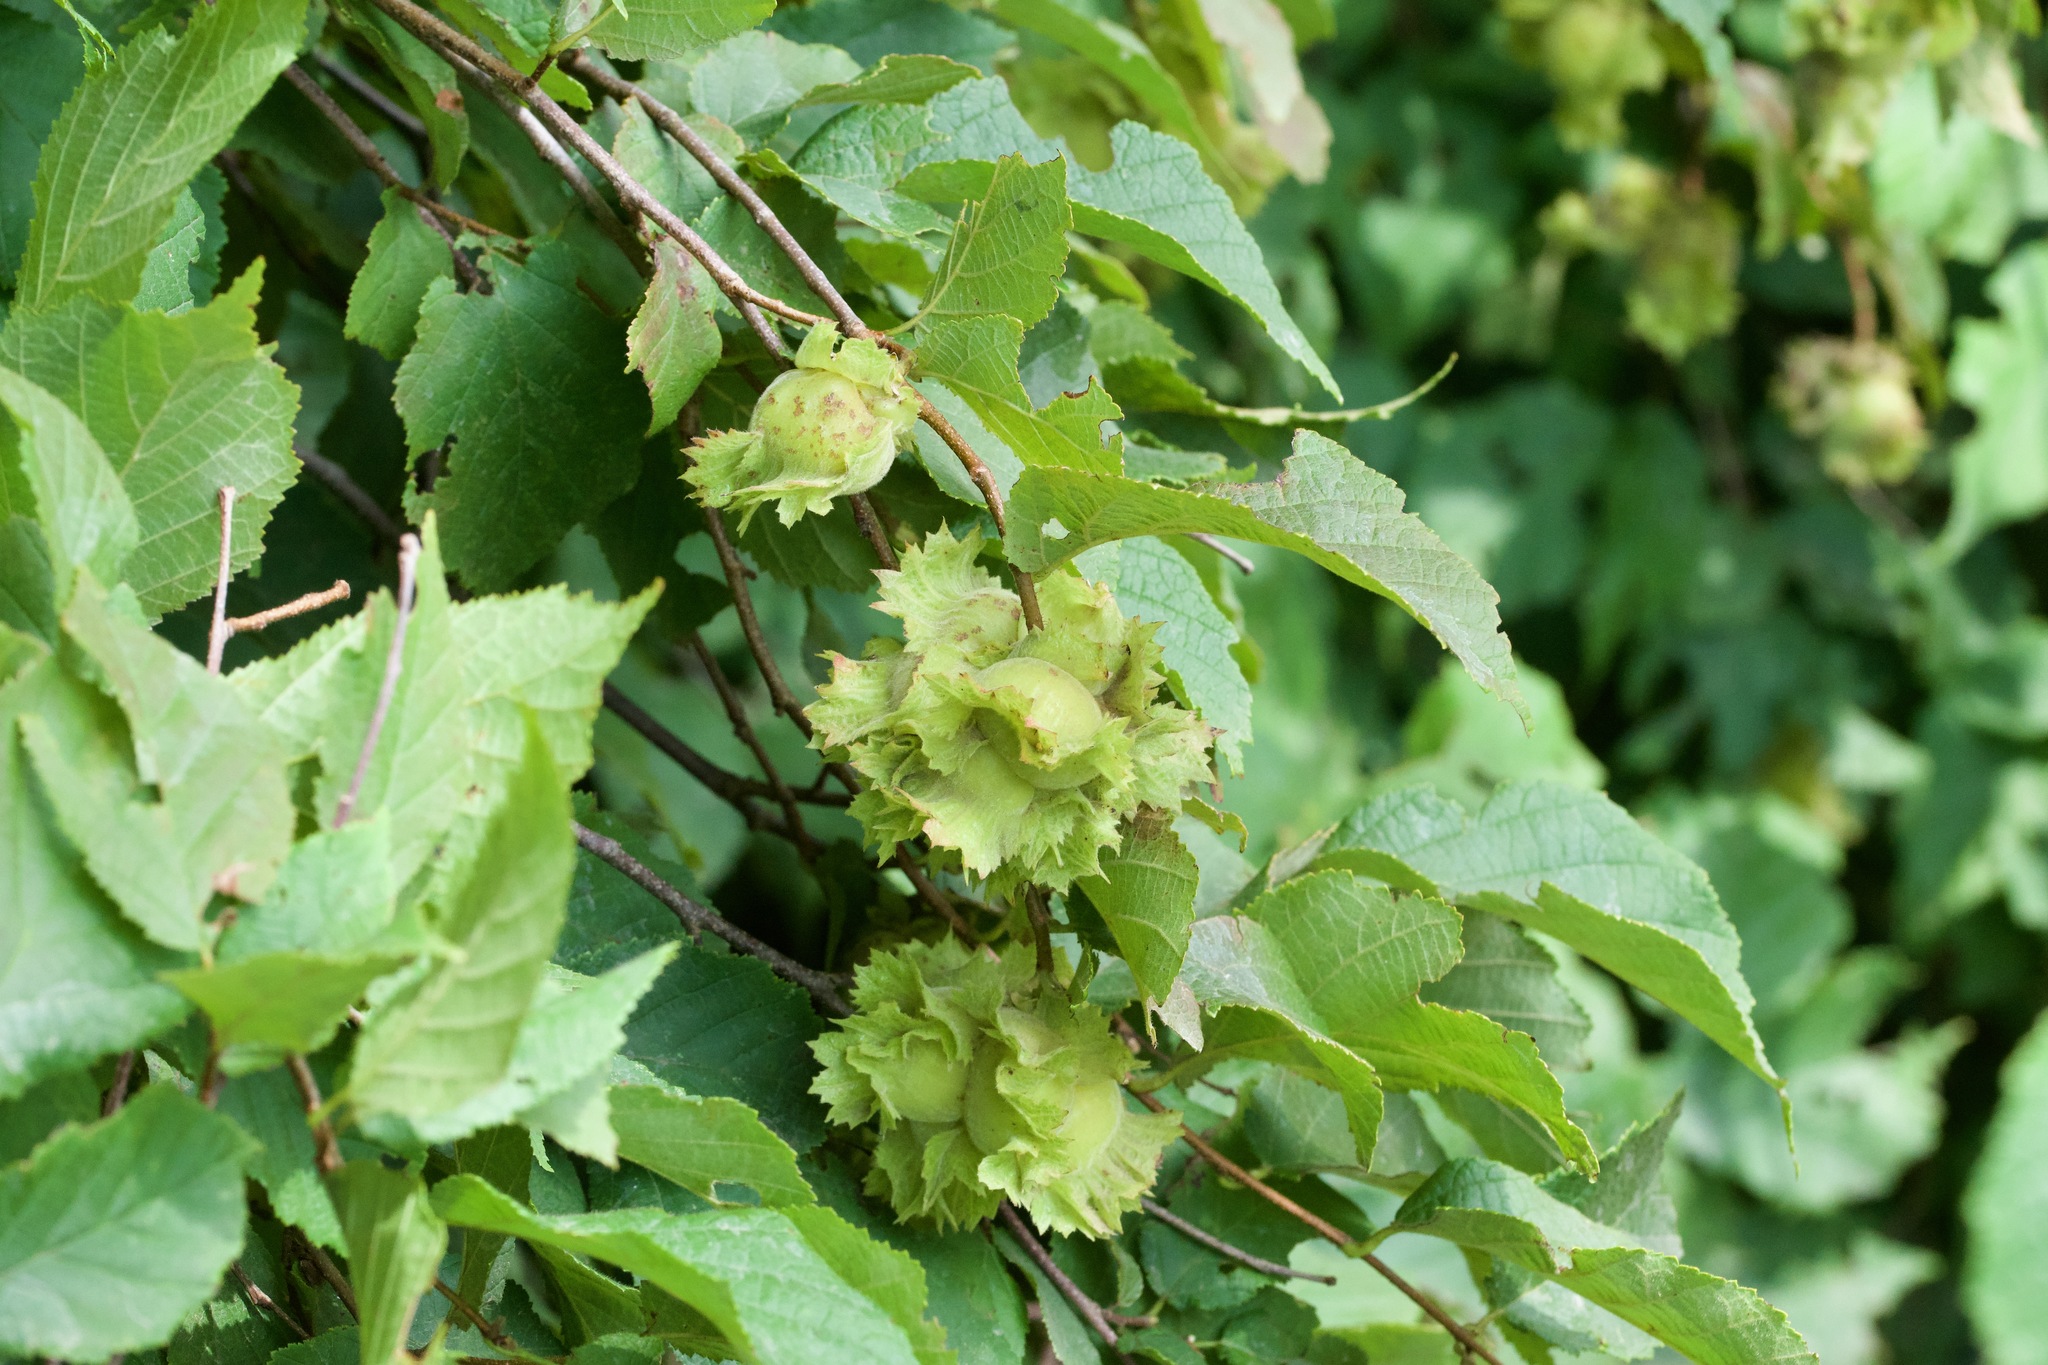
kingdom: Plantae
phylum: Tracheophyta
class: Magnoliopsida
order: Fagales
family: Betulaceae
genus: Corylus
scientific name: Corylus americana
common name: American hazel
